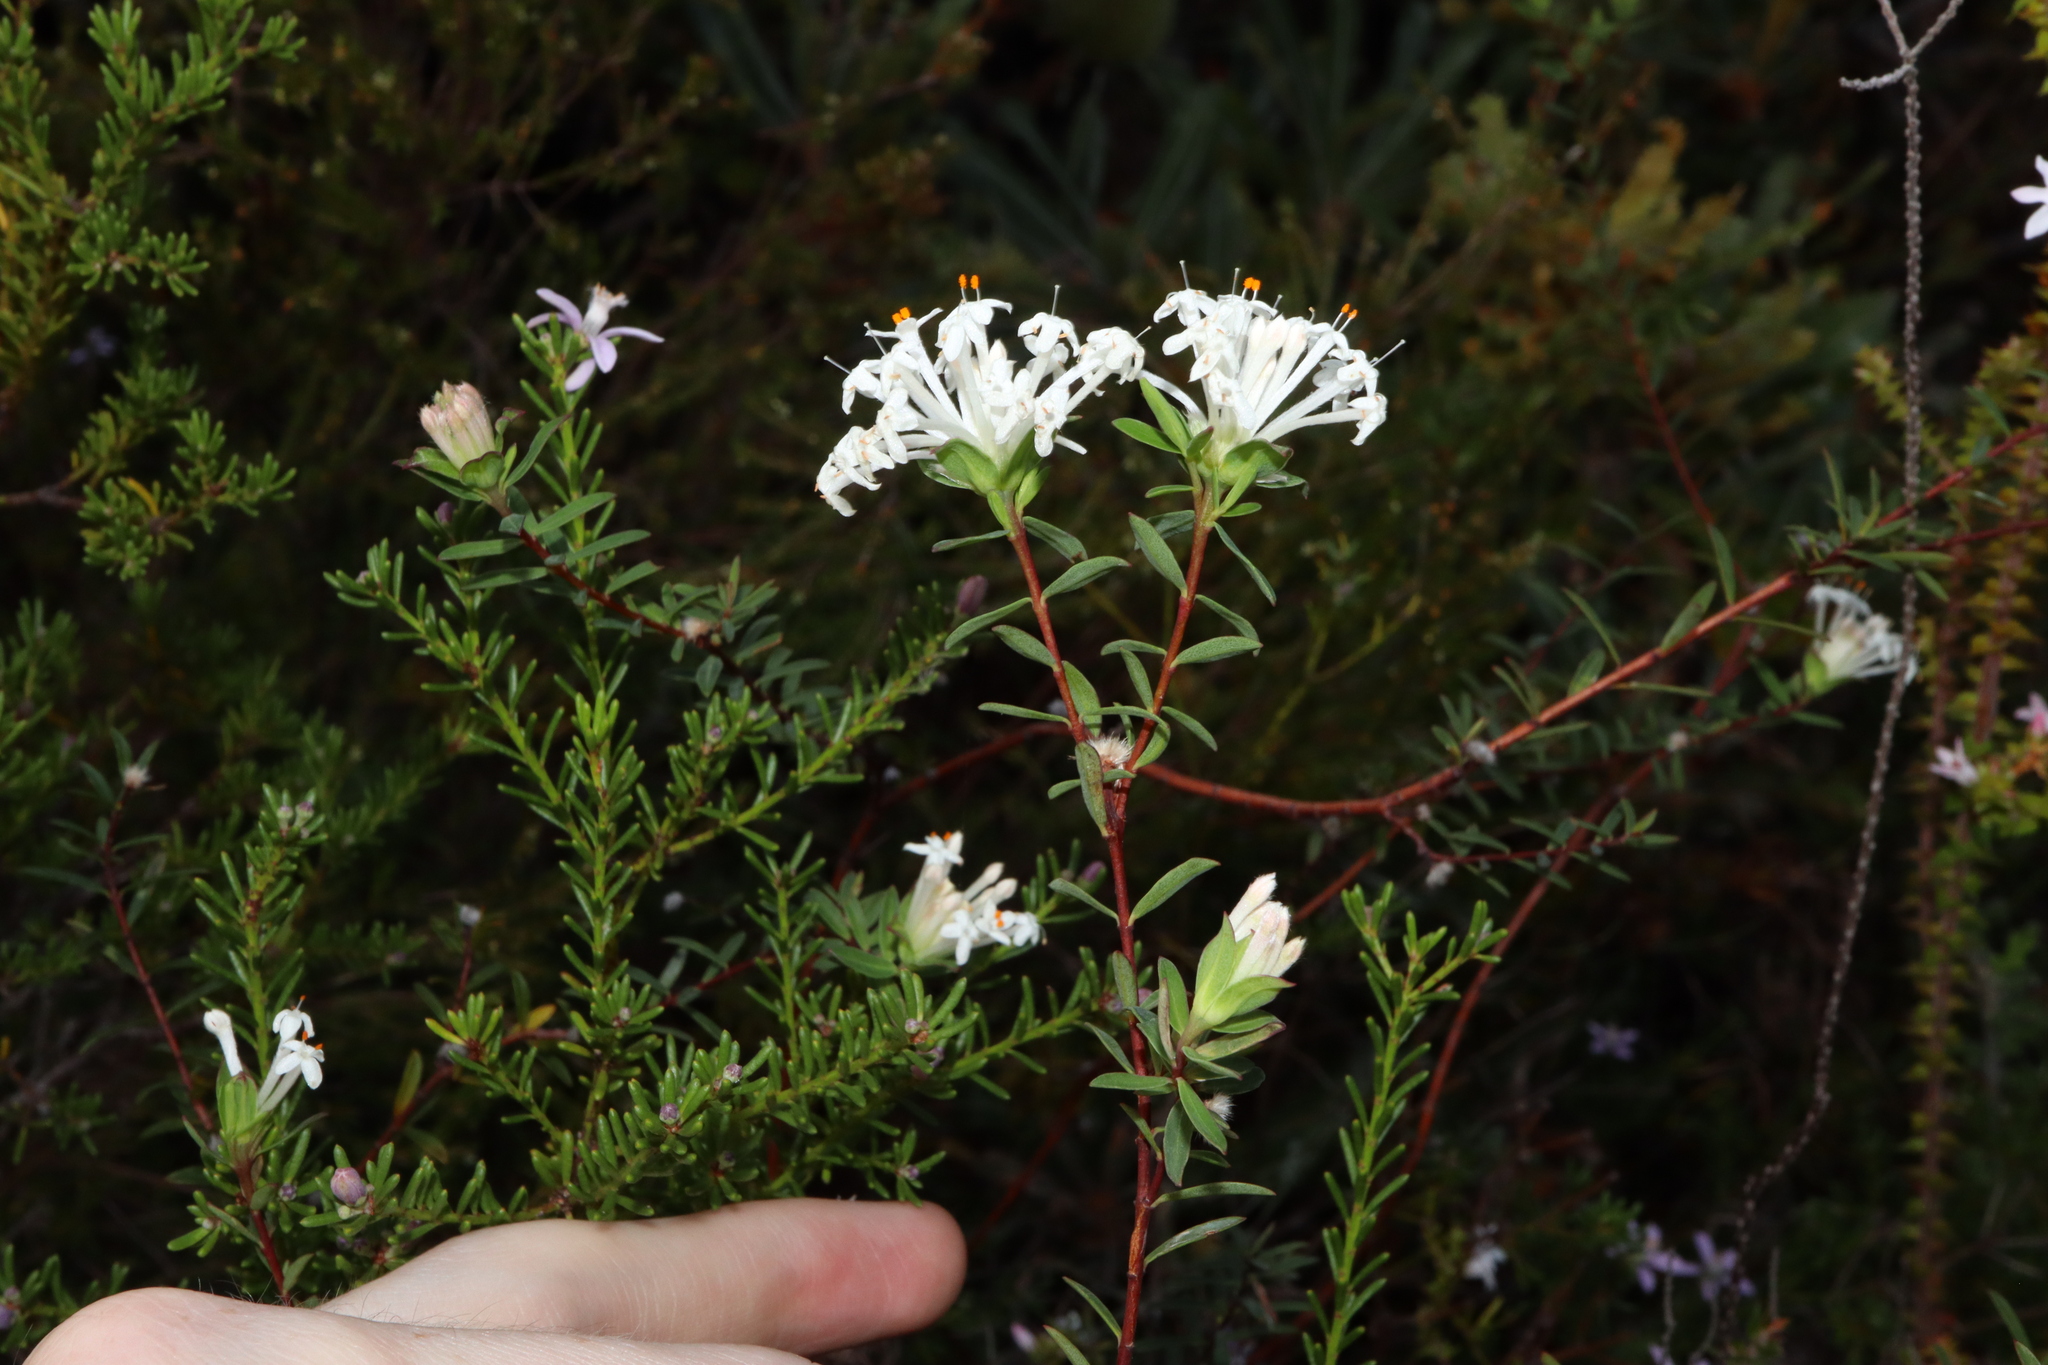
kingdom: Plantae
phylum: Tracheophyta
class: Magnoliopsida
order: Malvales
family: Thymelaeaceae
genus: Pimelea
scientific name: Pimelea linifolia
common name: Queen-of-the-bush
